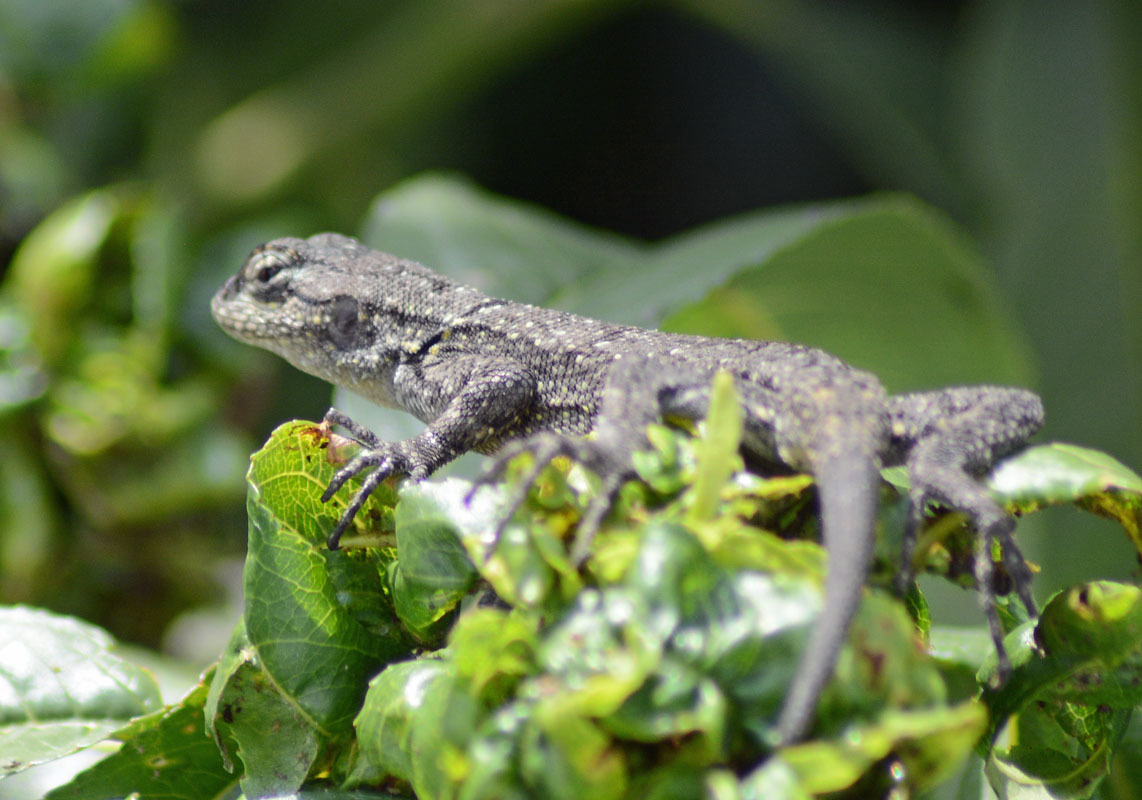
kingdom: Animalia
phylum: Chordata
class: Squamata
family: Phrynosomatidae
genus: Sceloporus
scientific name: Sceloporus grammicus
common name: Mesquite lizard
